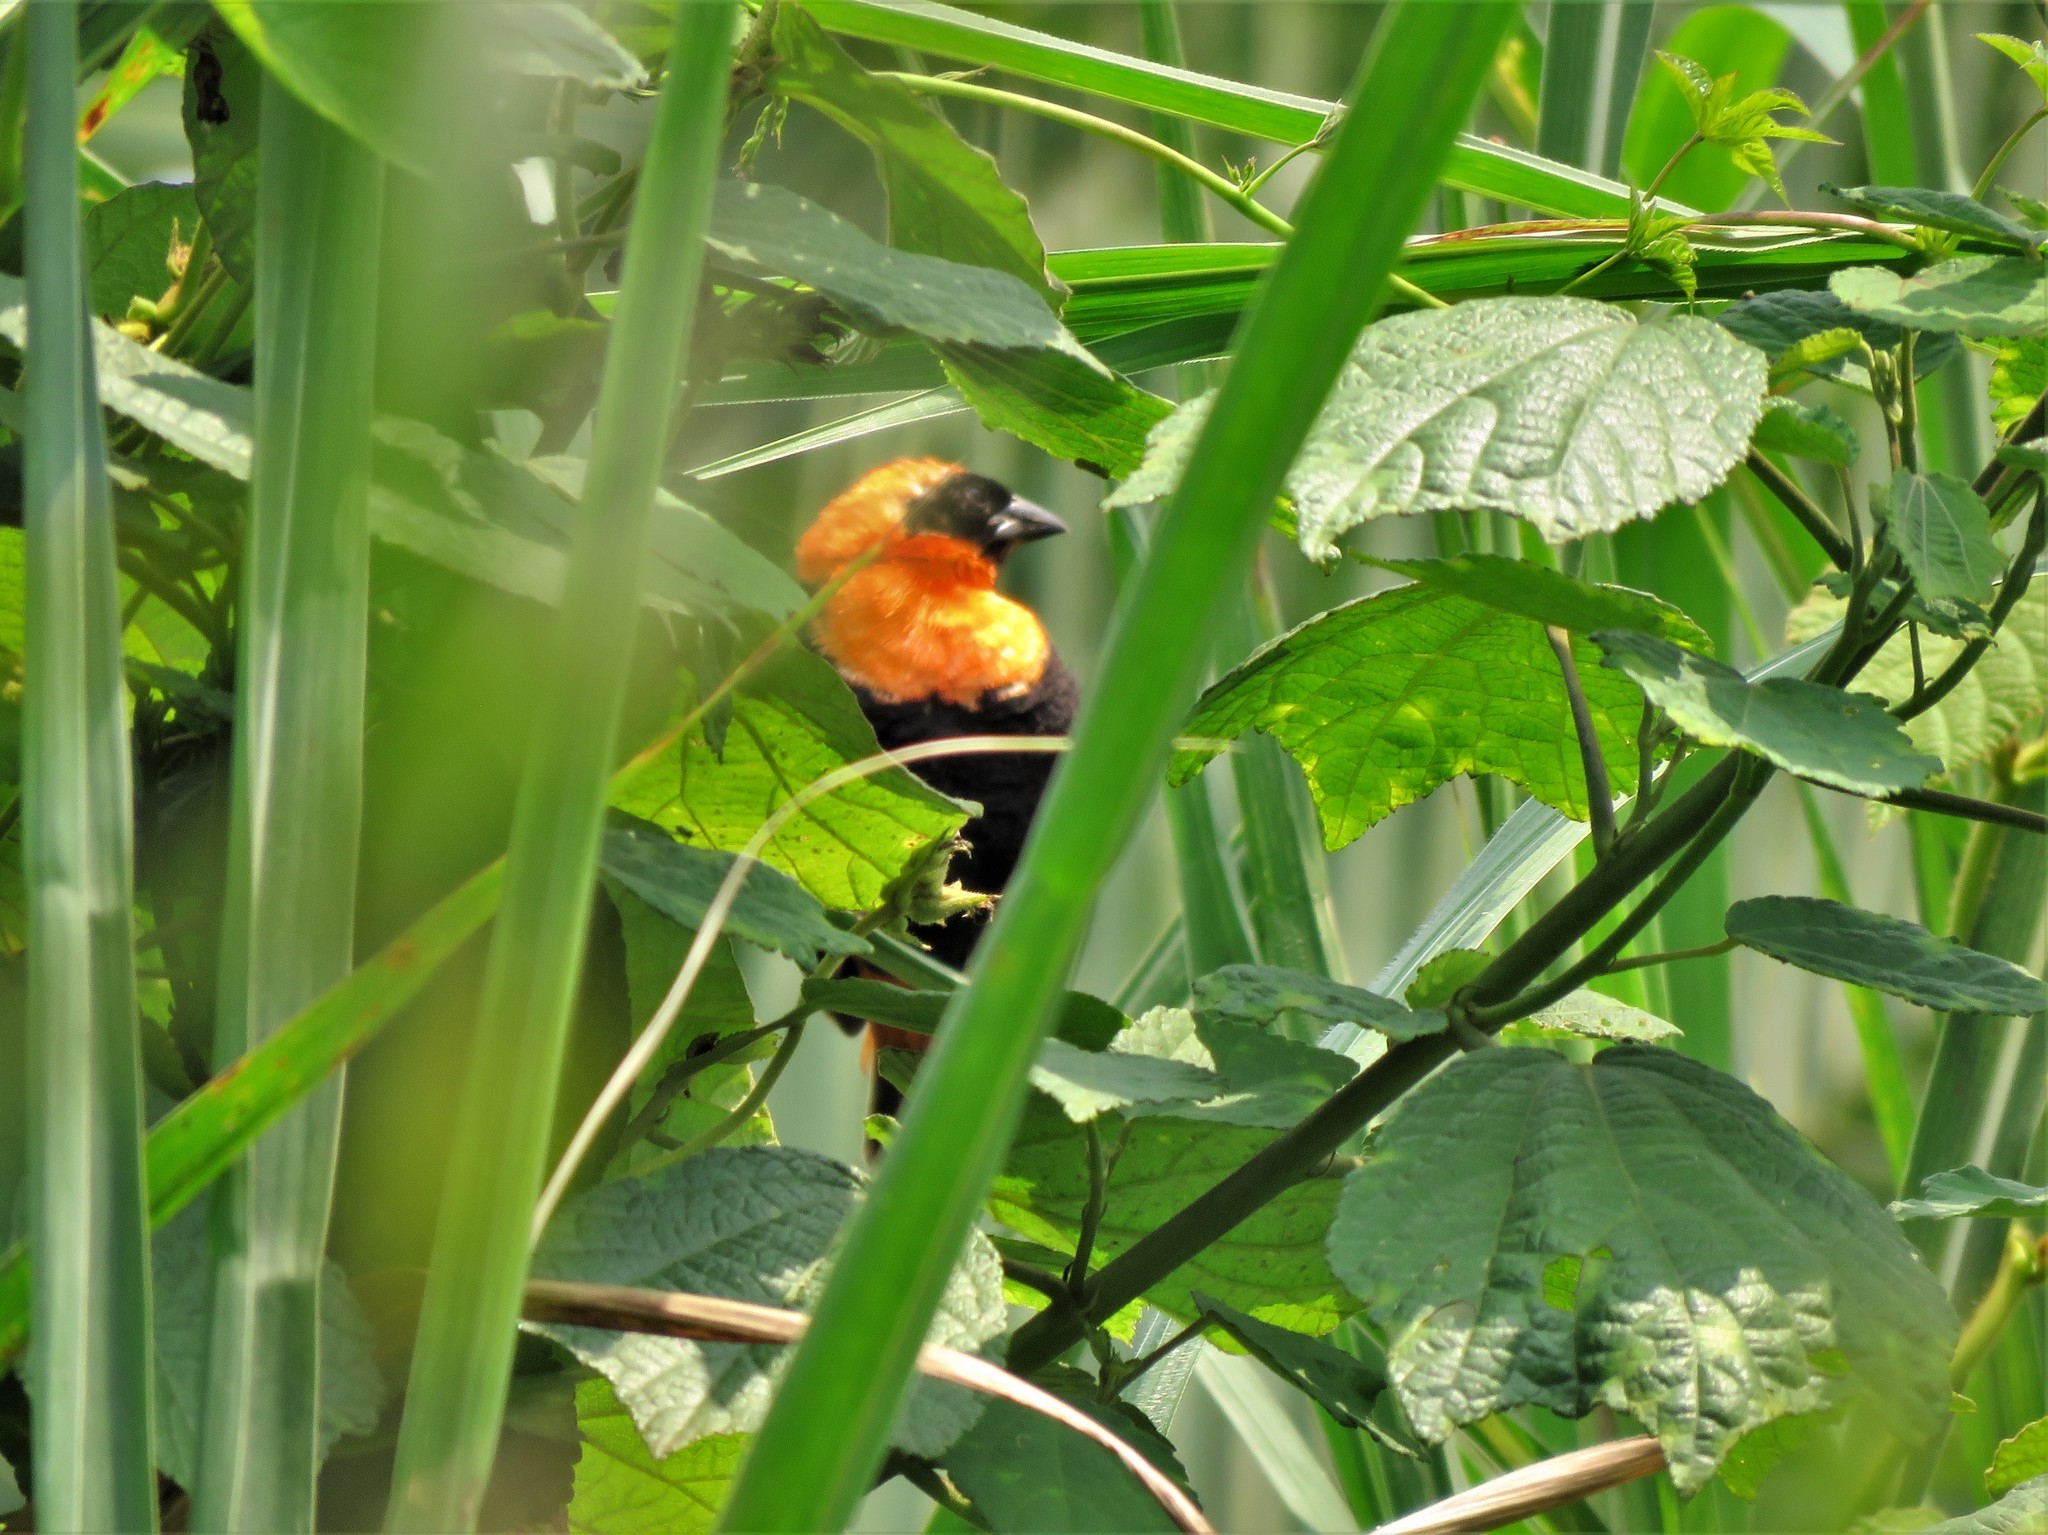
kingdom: Animalia
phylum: Chordata
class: Aves
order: Passeriformes
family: Ploceidae
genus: Euplectes
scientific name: Euplectes orix
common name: Southern red bishop
